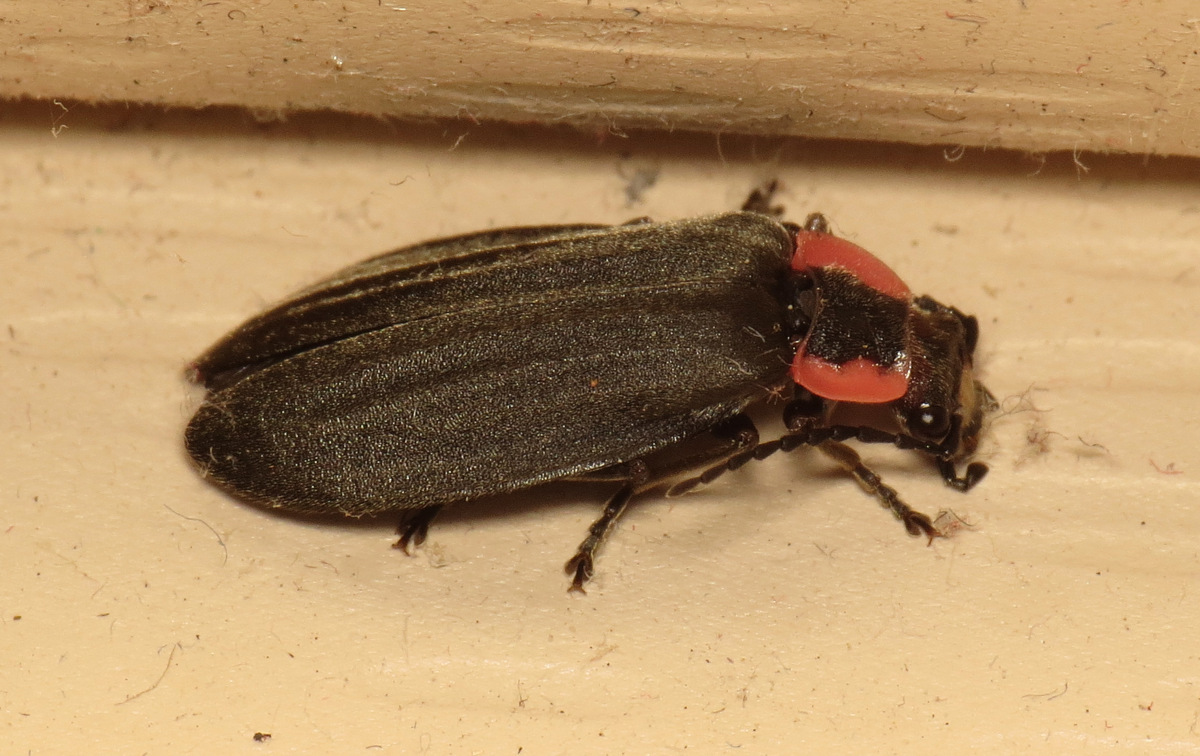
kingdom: Animalia
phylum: Arthropoda
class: Insecta
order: Coleoptera
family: Cantharidae
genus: Podabrus
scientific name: Podabrus tricostatus
